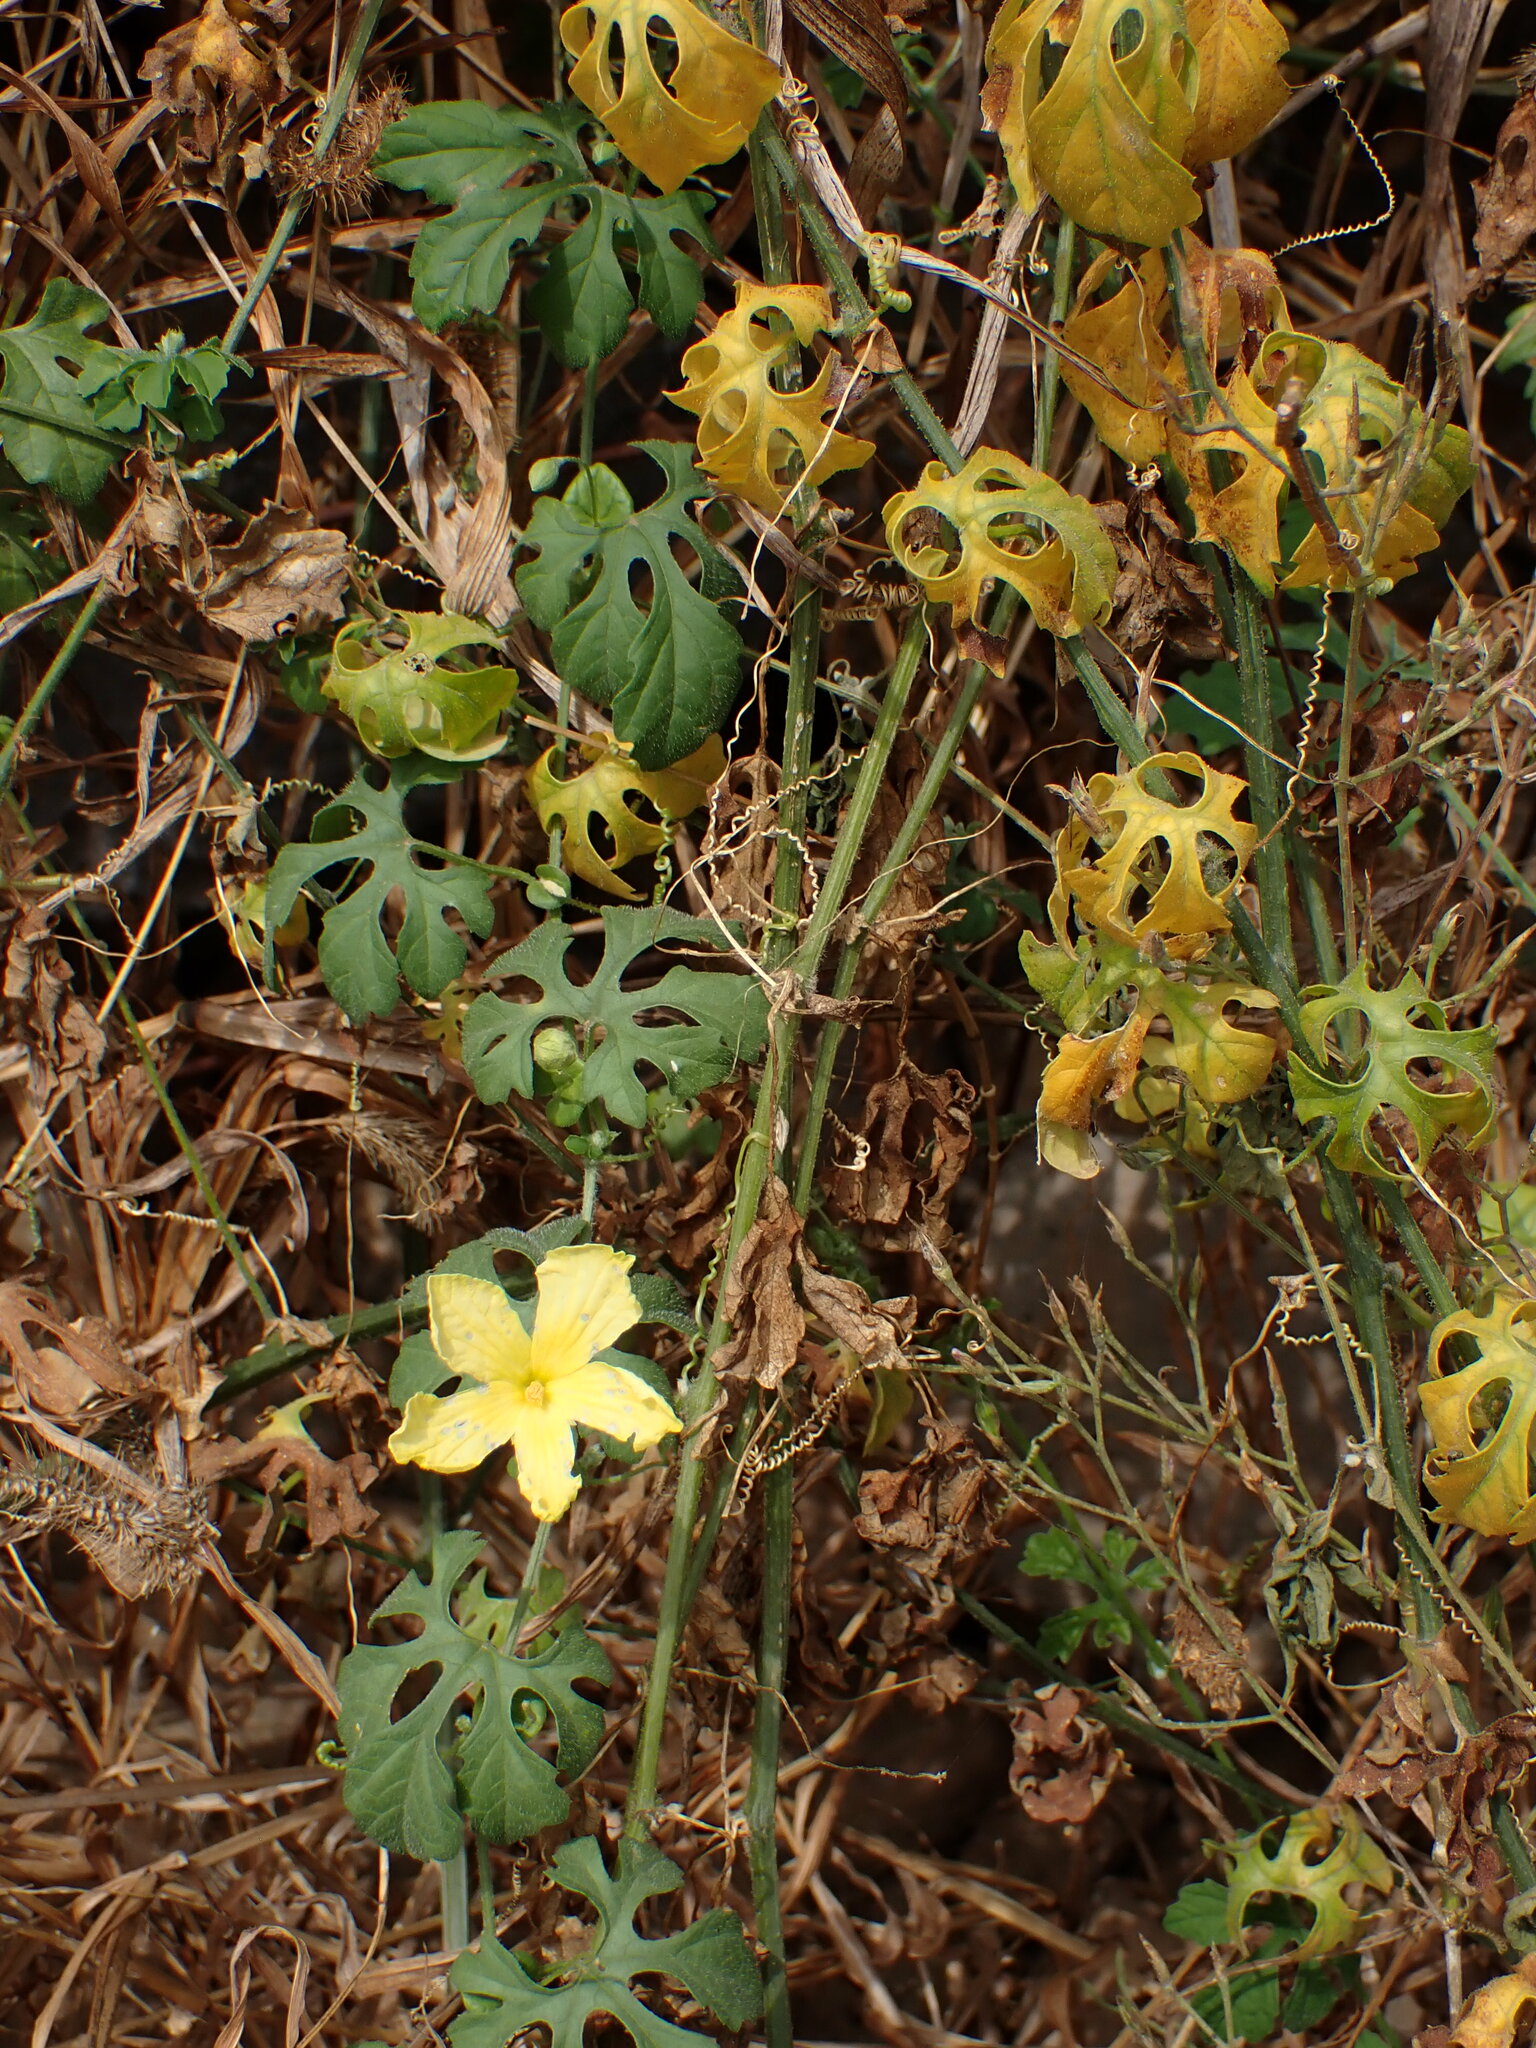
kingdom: Plantae
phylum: Tracheophyta
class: Magnoliopsida
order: Cucurbitales
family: Cucurbitaceae
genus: Momordica
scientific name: Momordica charantia
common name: Balsampear
